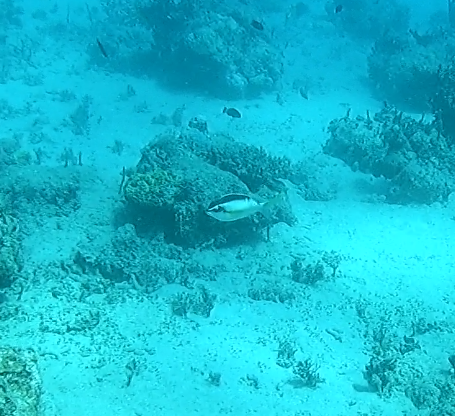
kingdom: Animalia
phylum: Chordata
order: Perciformes
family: Nemipteridae
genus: Scolopsis
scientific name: Scolopsis margaritifera
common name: Pearly monocle bream
